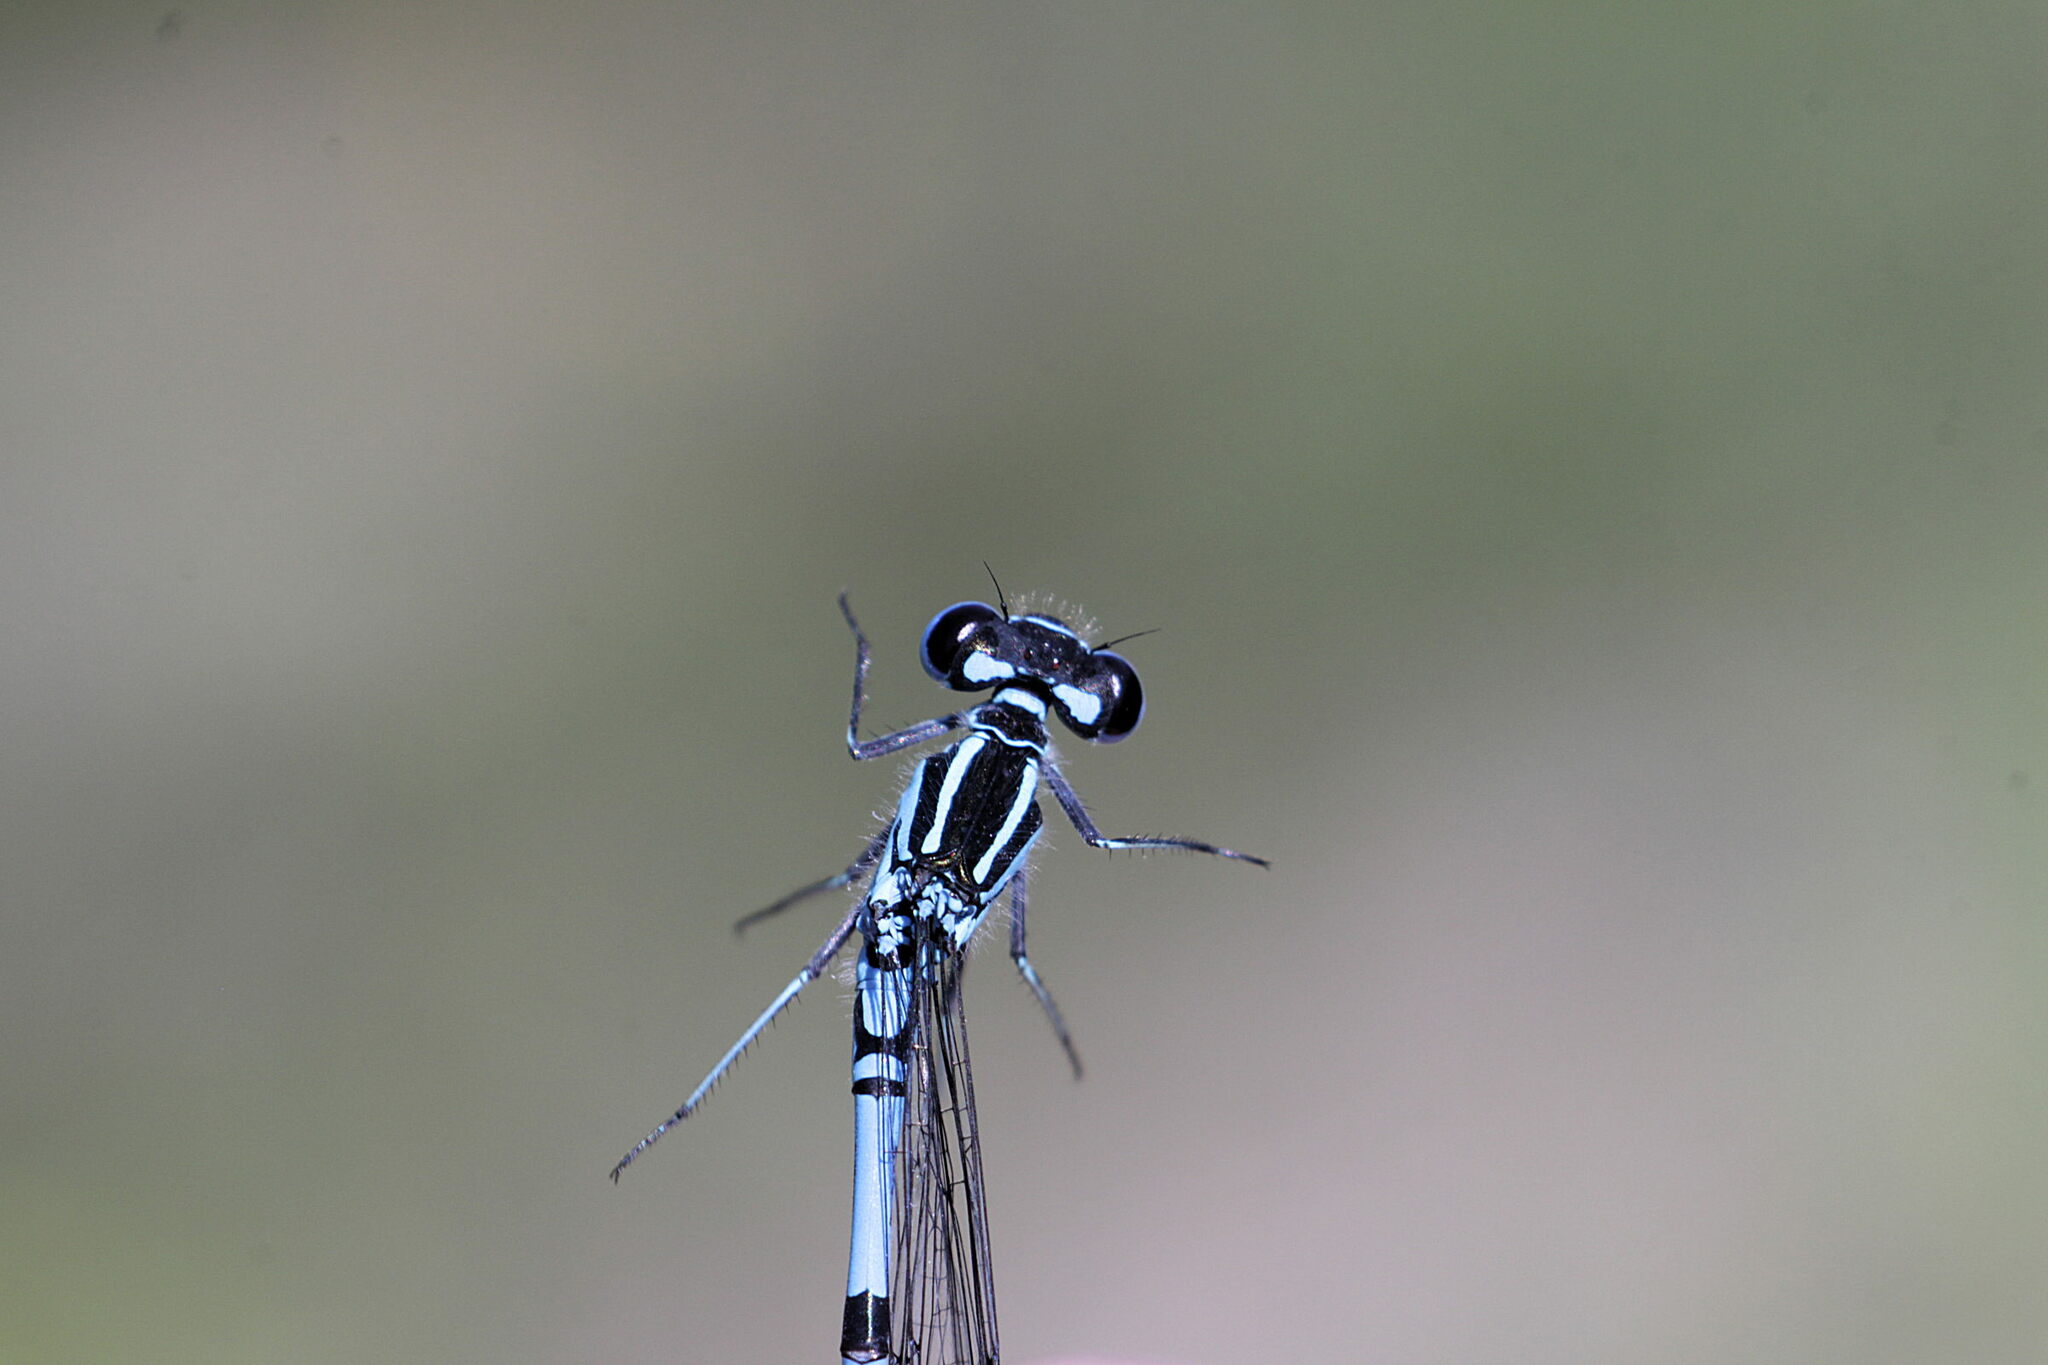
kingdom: Animalia
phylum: Arthropoda
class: Insecta
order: Odonata
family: Coenagrionidae
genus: Coenagrion
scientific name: Coenagrion puella
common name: Azure damselfly
